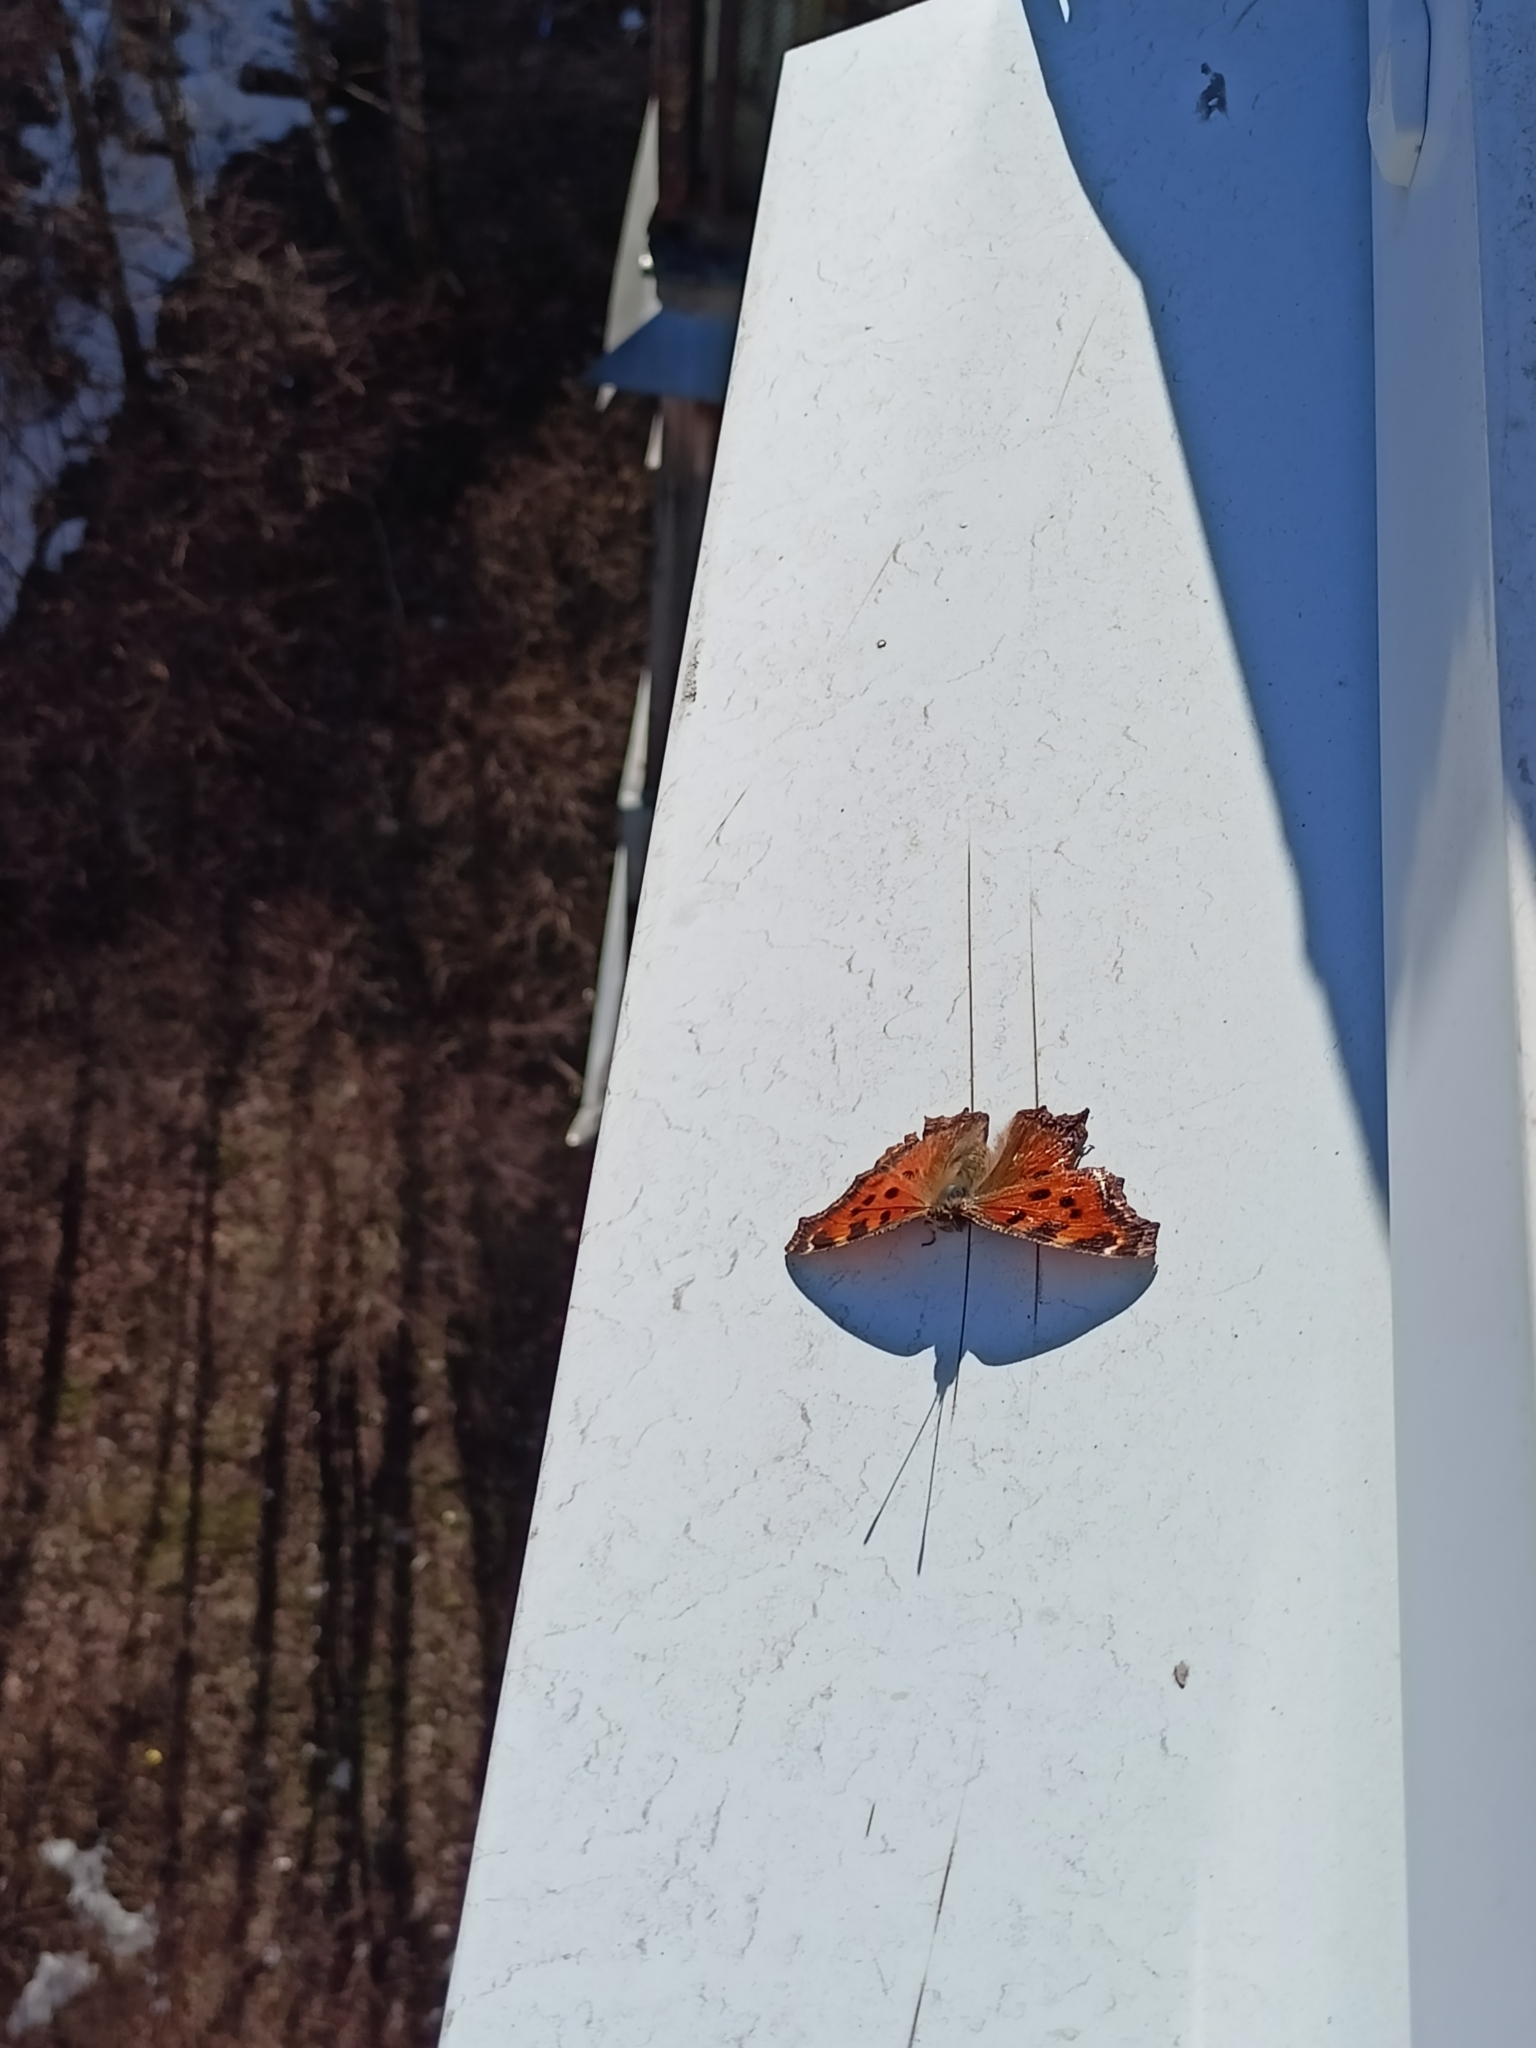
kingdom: Animalia
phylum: Arthropoda
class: Insecta
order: Lepidoptera
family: Nymphalidae
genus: Nymphalis
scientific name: Nymphalis xanthomelas
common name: Scarce tortoiseshell
